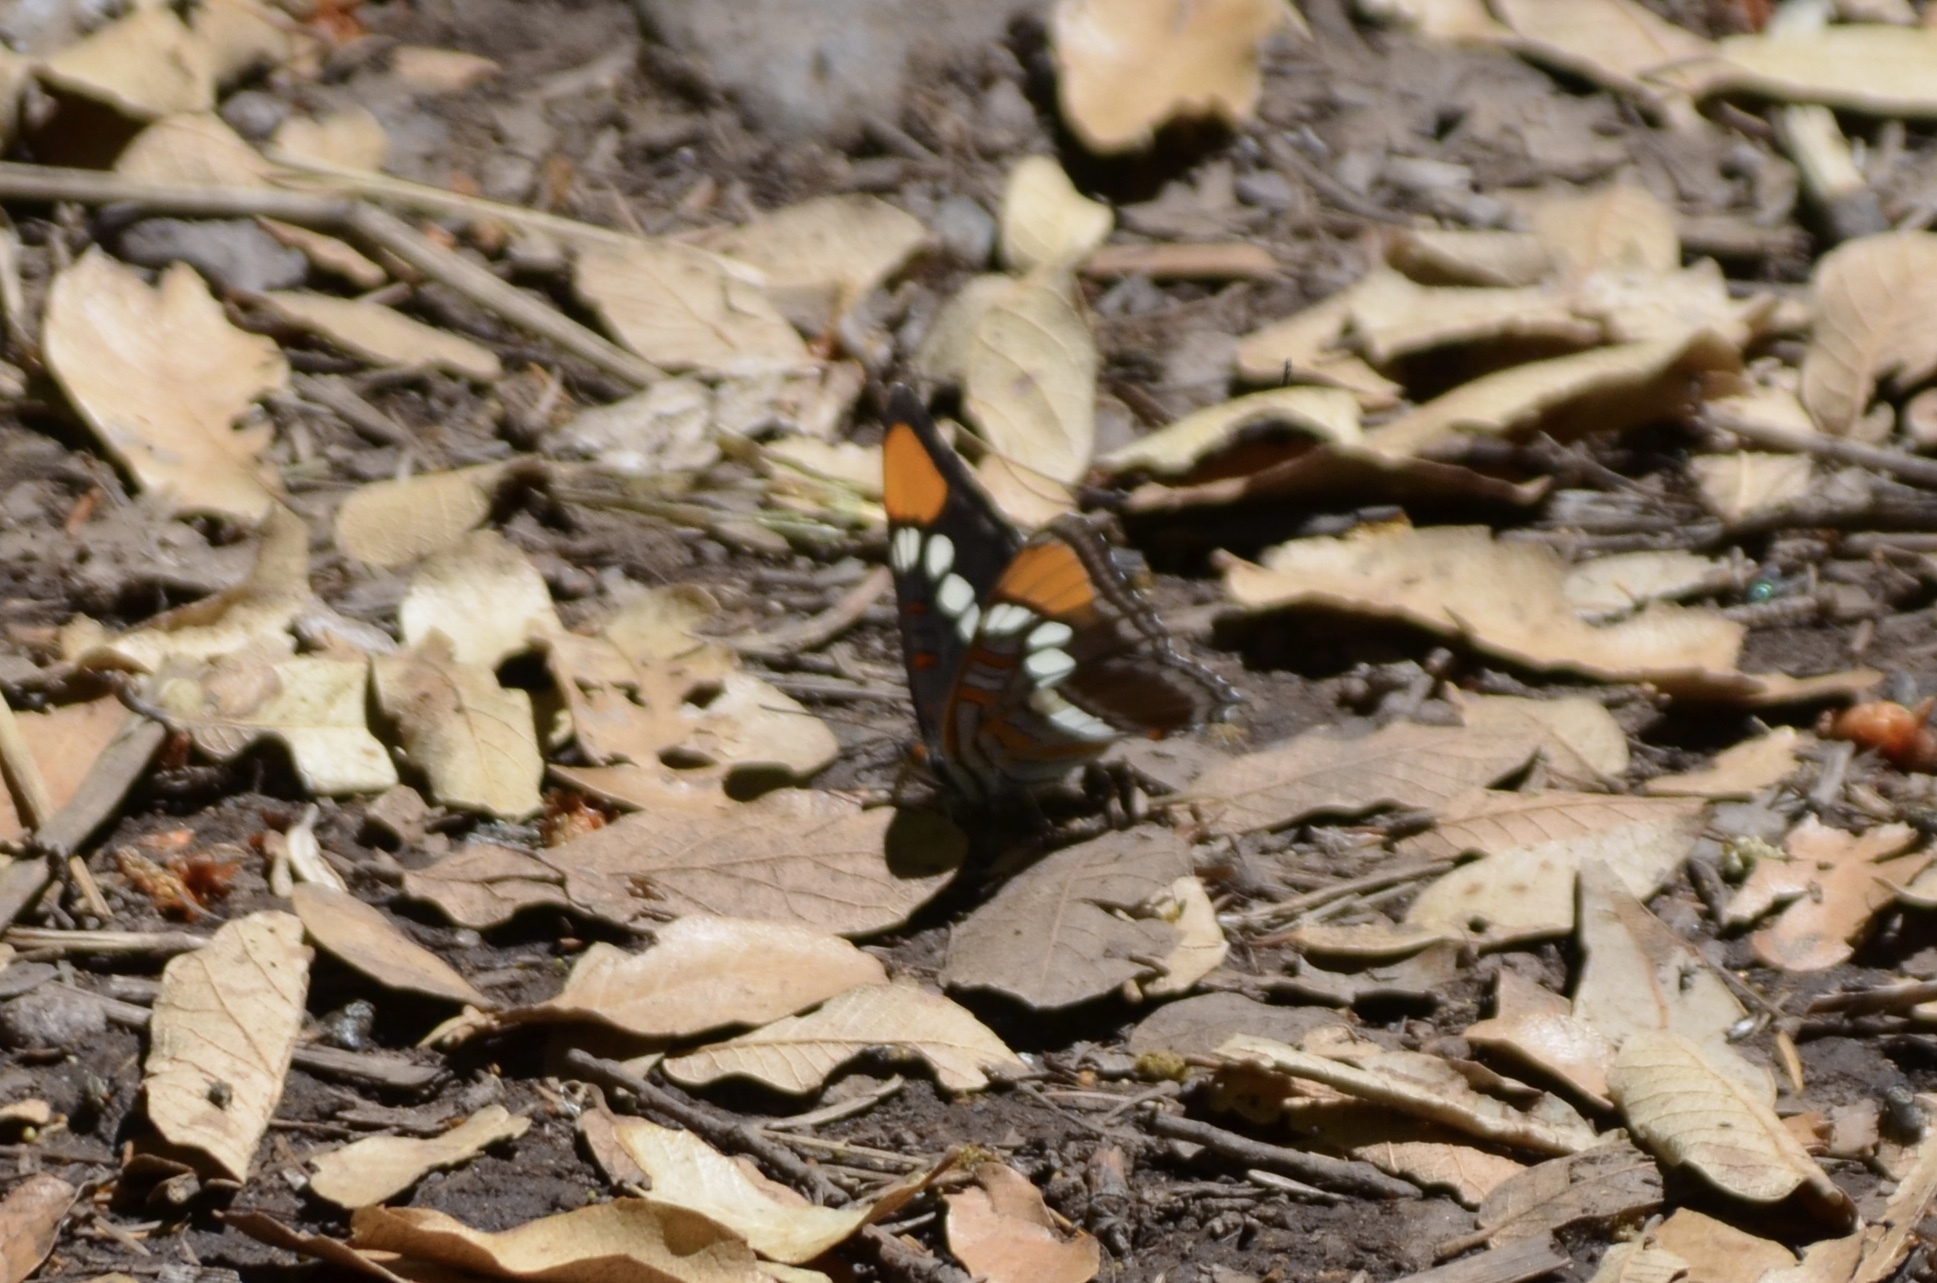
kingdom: Animalia
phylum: Arthropoda
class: Insecta
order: Lepidoptera
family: Nymphalidae
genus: Limenitis
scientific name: Limenitis bredowii
